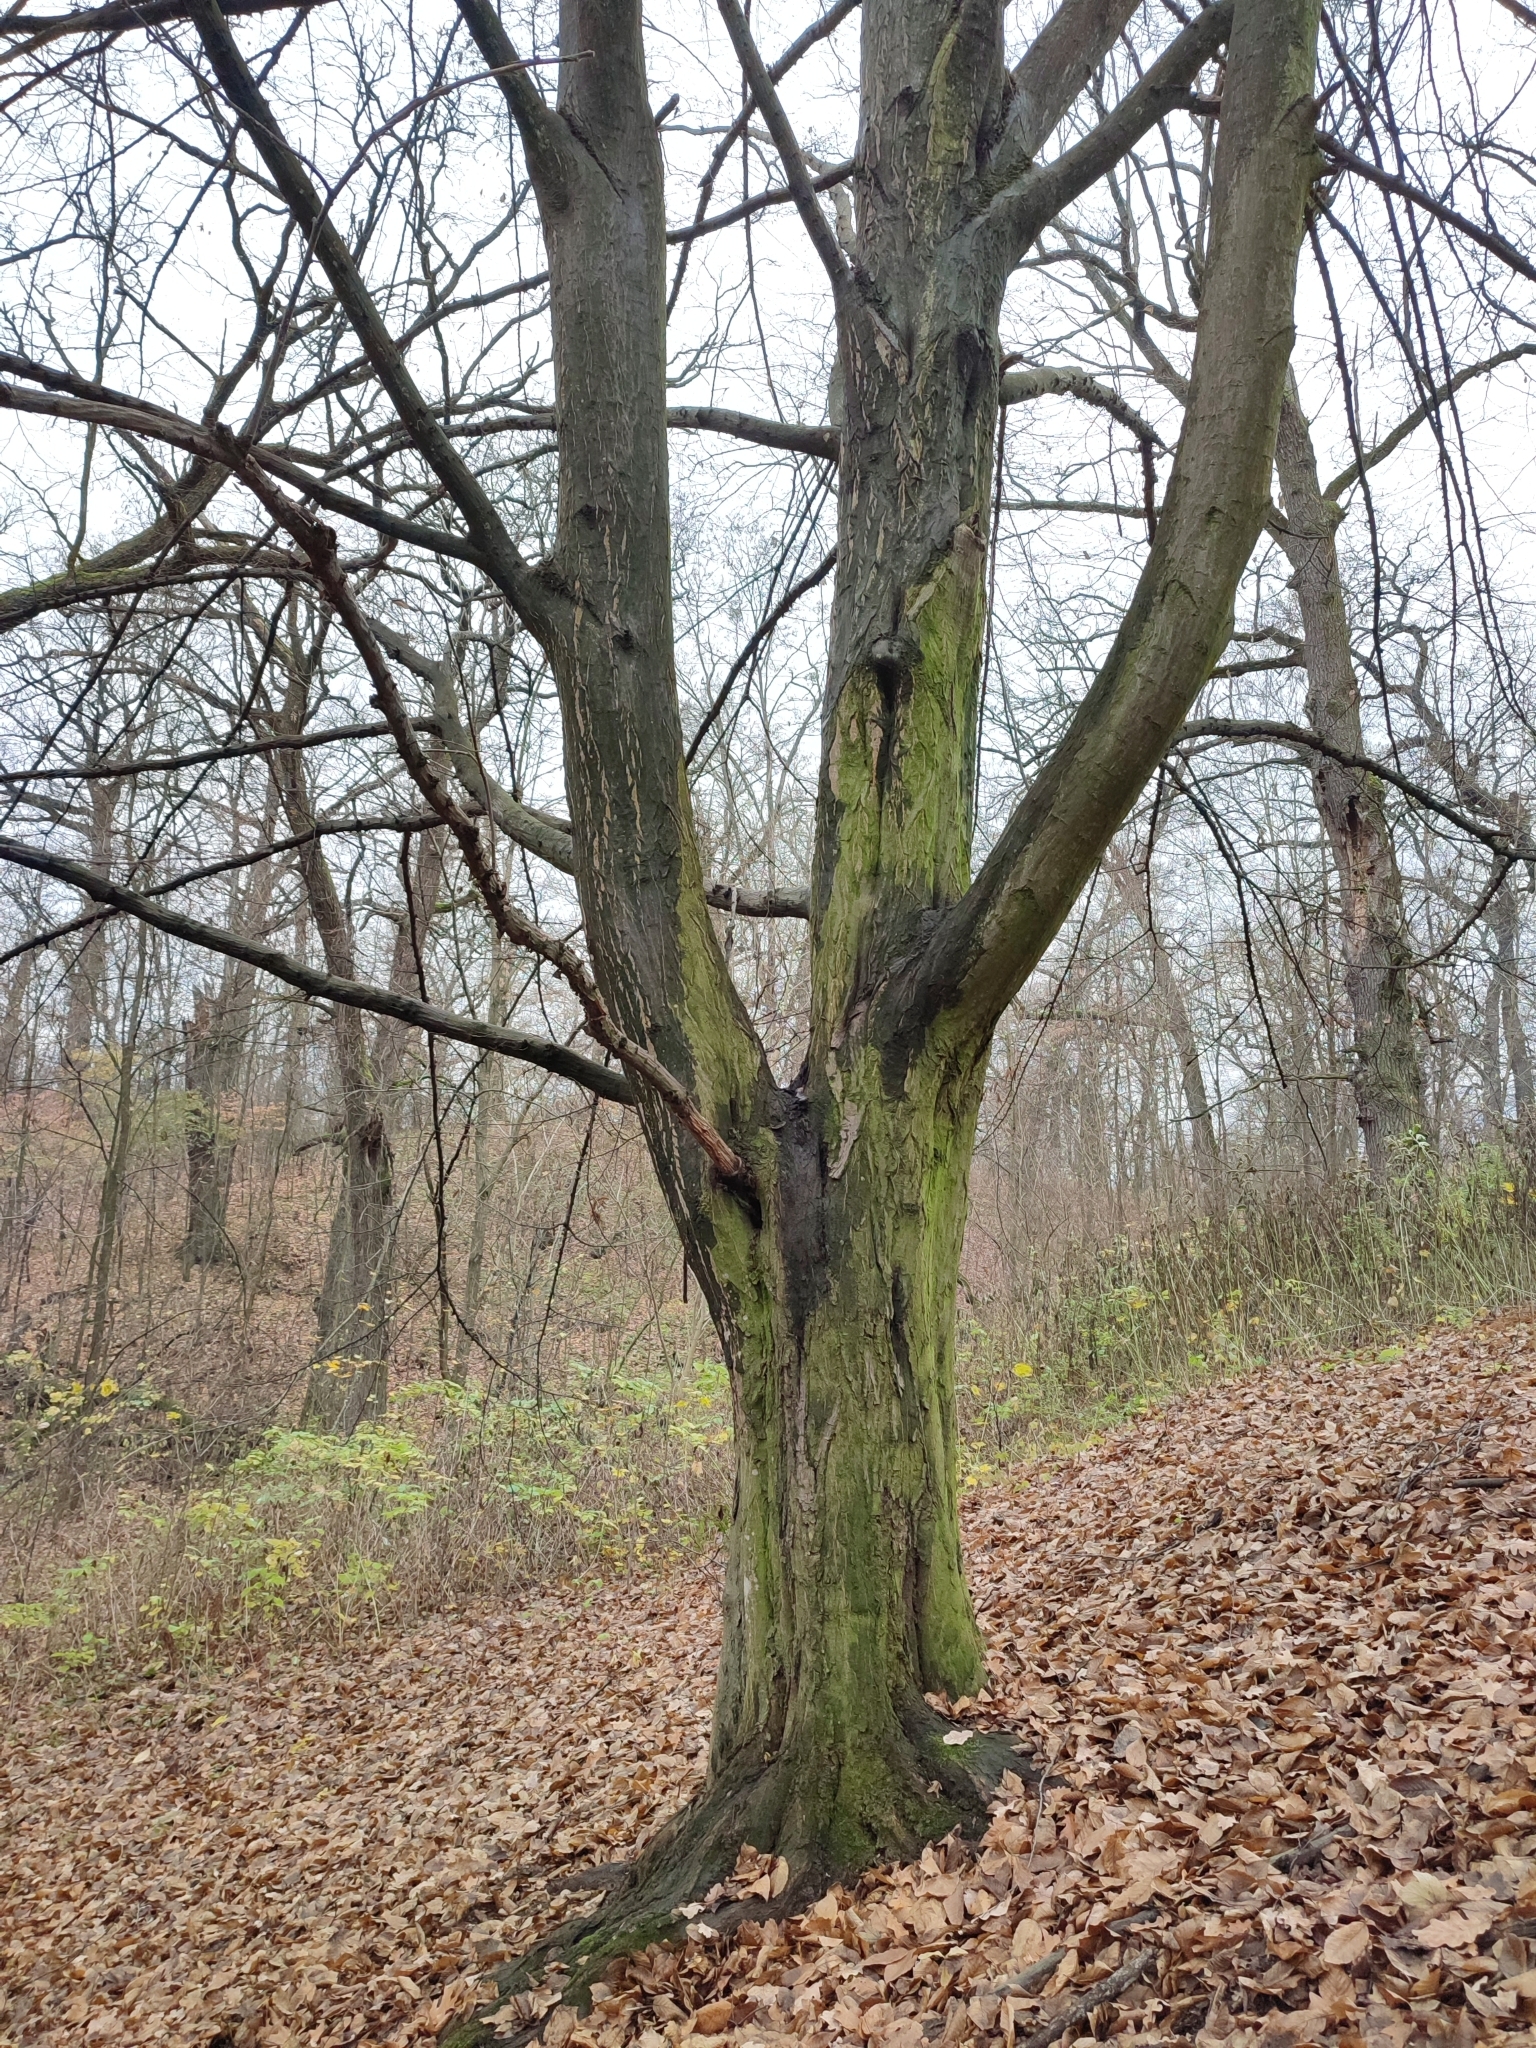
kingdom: Plantae
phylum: Tracheophyta
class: Magnoliopsida
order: Fagales
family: Betulaceae
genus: Carpinus
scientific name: Carpinus betulus
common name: Hornbeam
